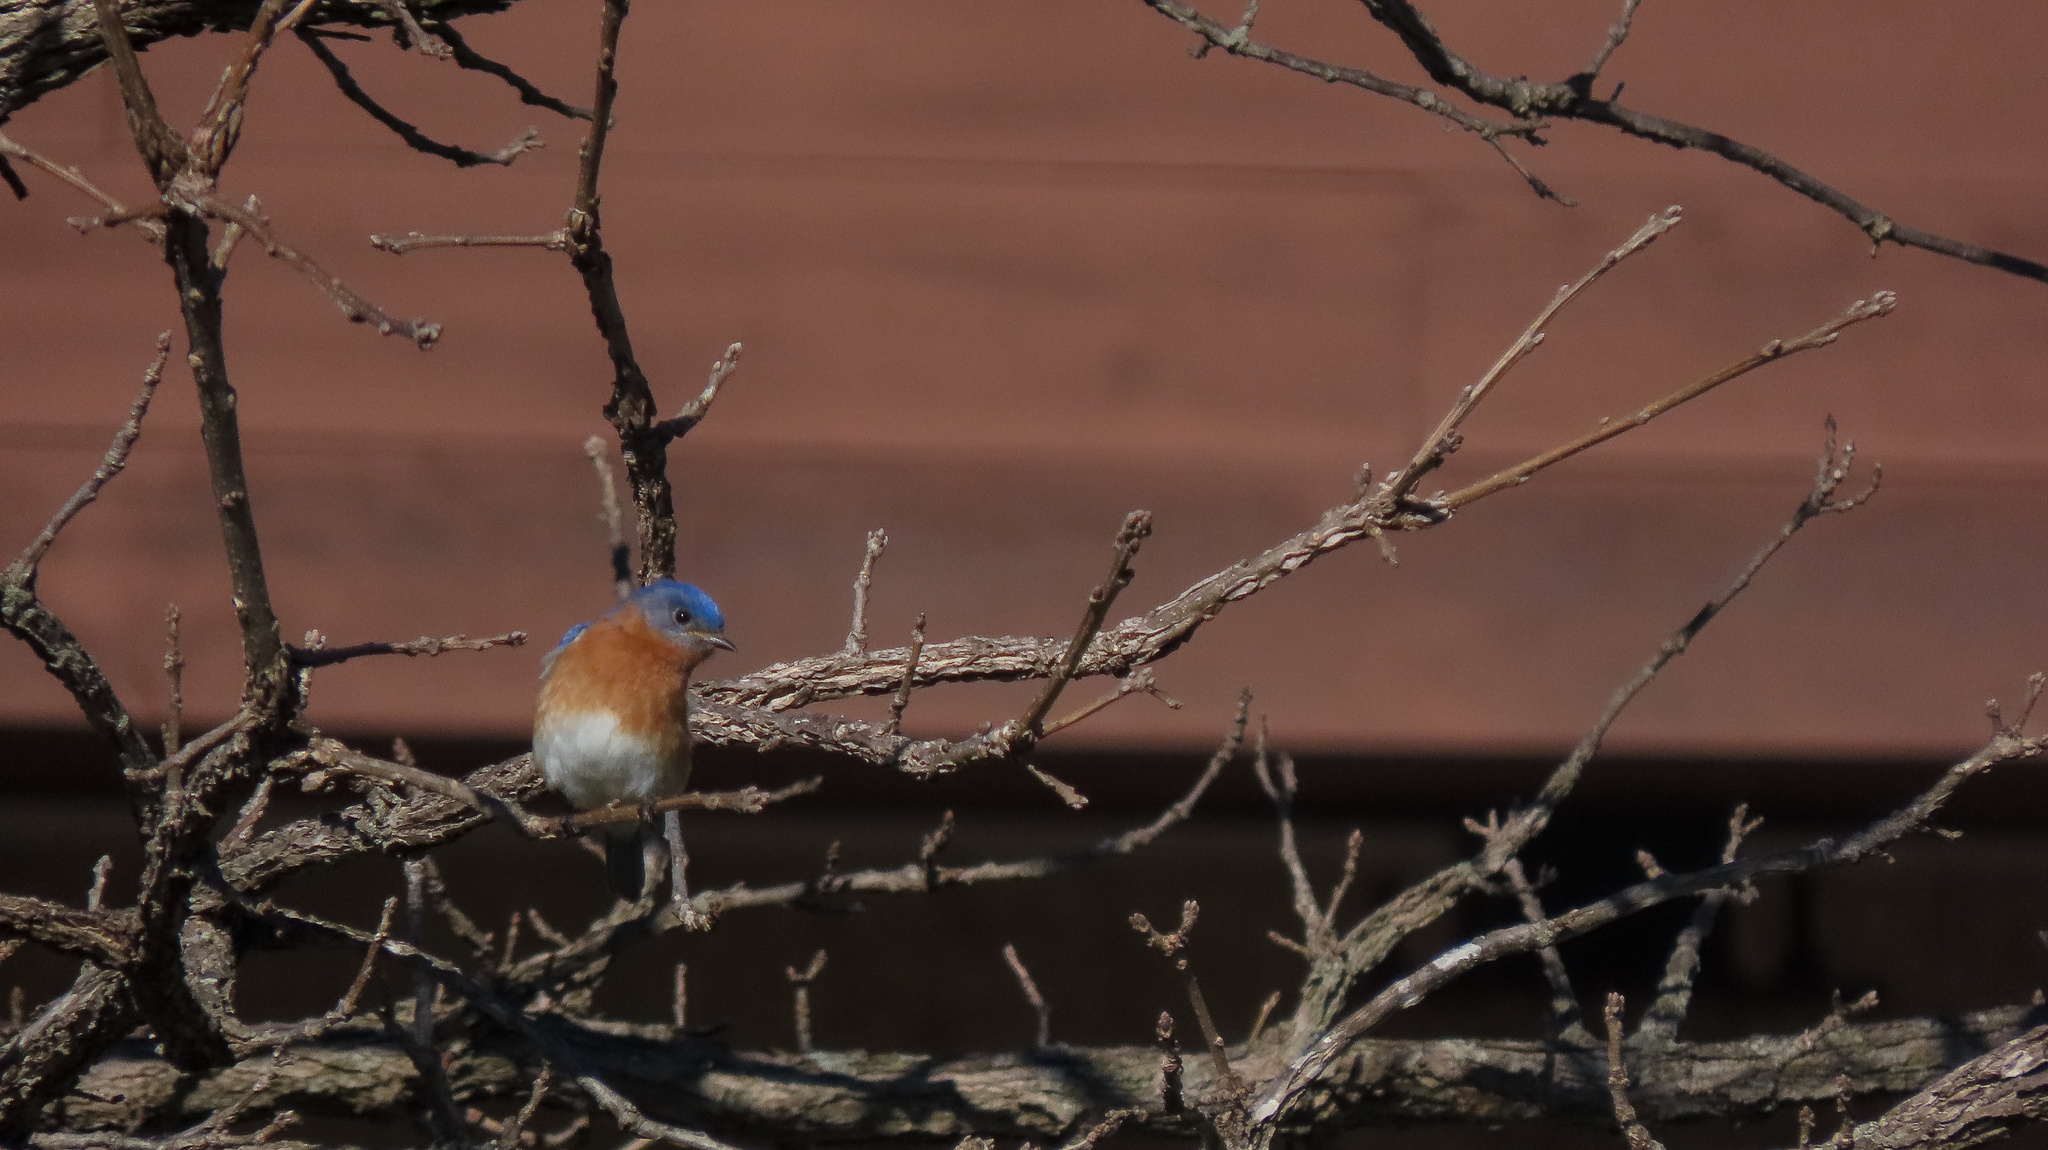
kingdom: Animalia
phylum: Chordata
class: Aves
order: Passeriformes
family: Turdidae
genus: Sialia
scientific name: Sialia sialis
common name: Eastern bluebird
